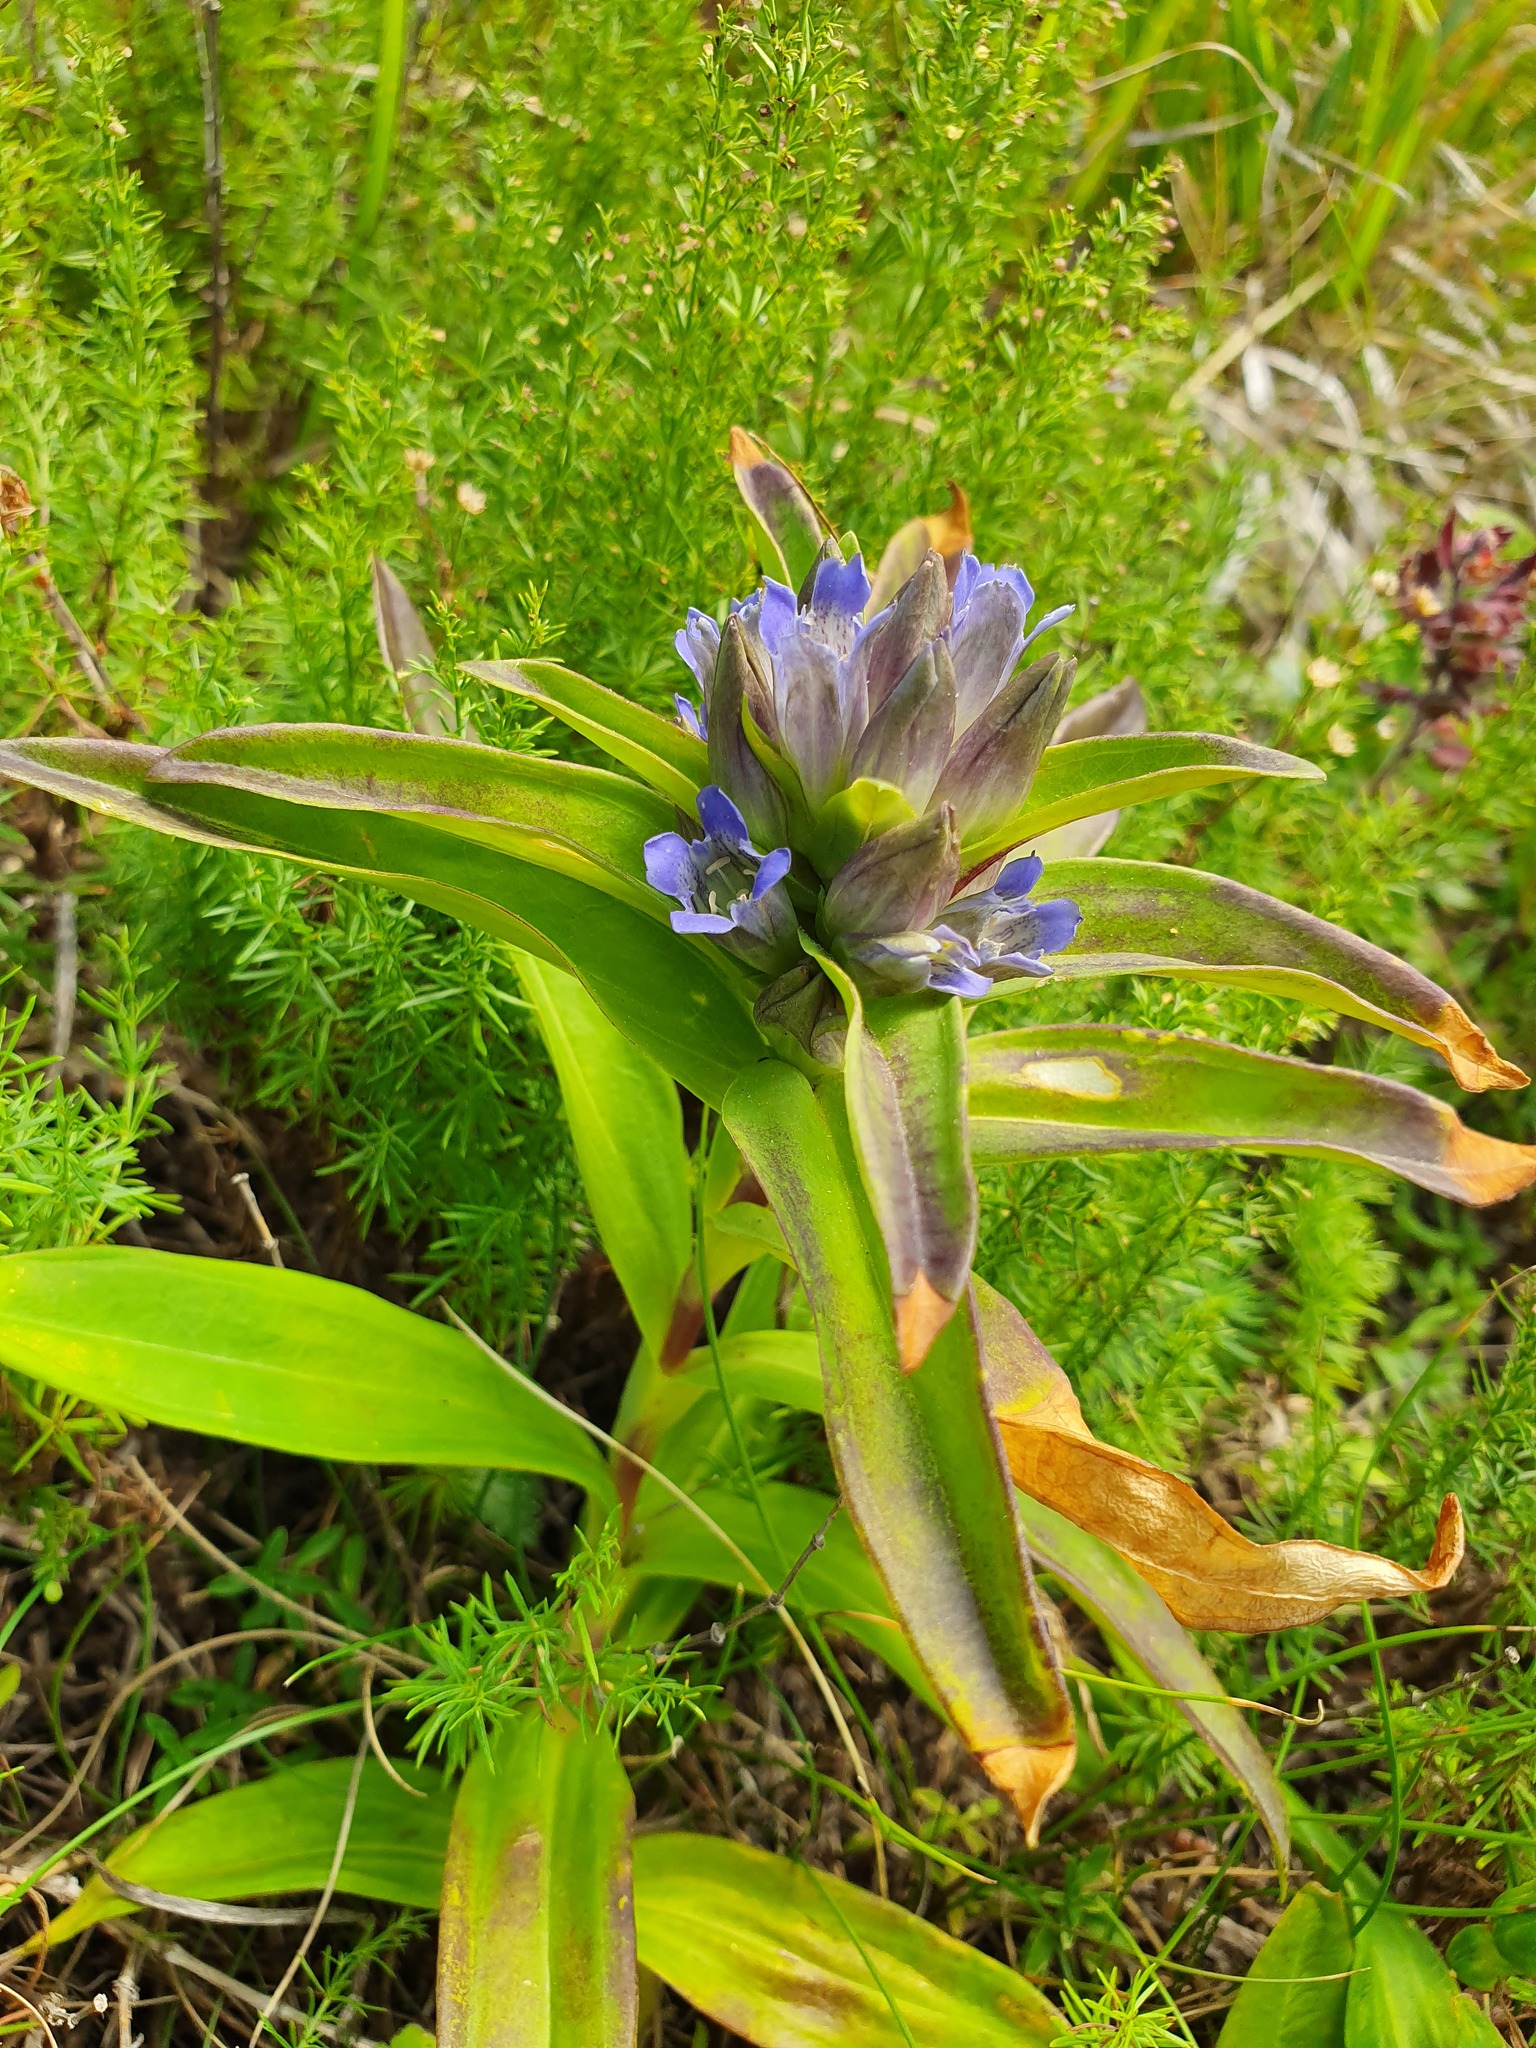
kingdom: Plantae
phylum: Tracheophyta
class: Magnoliopsida
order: Gentianales
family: Gentianaceae
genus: Gentiana
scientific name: Gentiana cruciata
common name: Cross gentian
